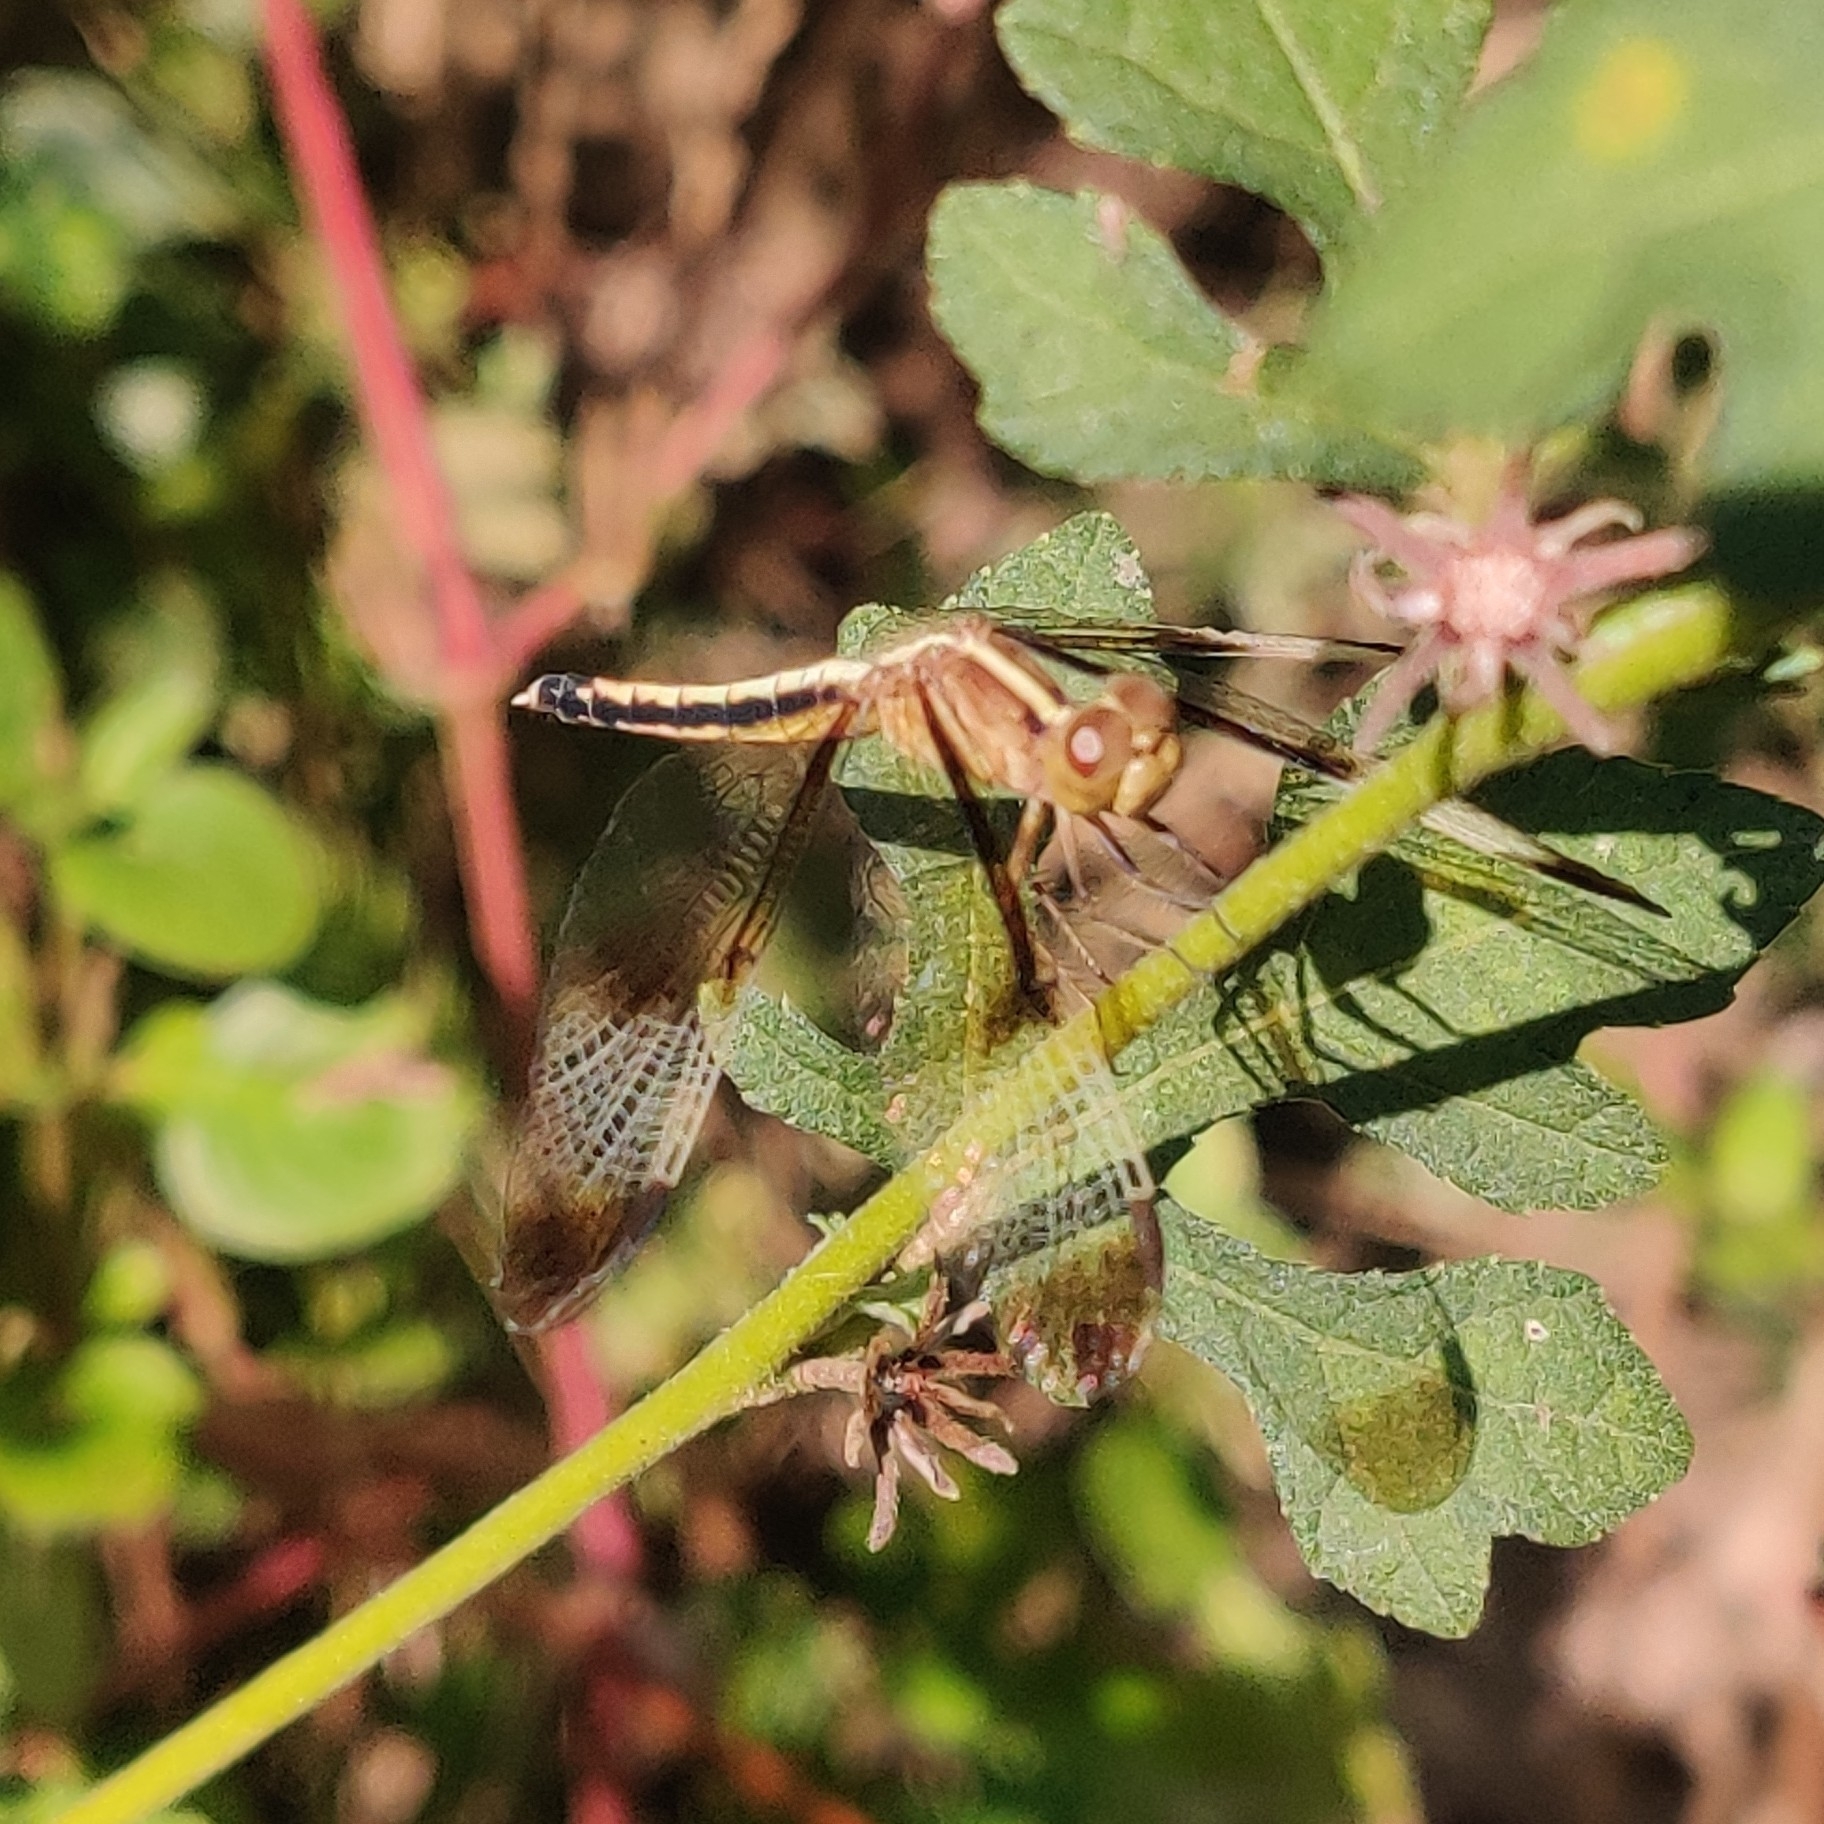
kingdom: Animalia
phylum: Arthropoda
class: Insecta
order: Odonata
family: Libellulidae
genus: Neurothemis
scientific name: Neurothemis tullia
